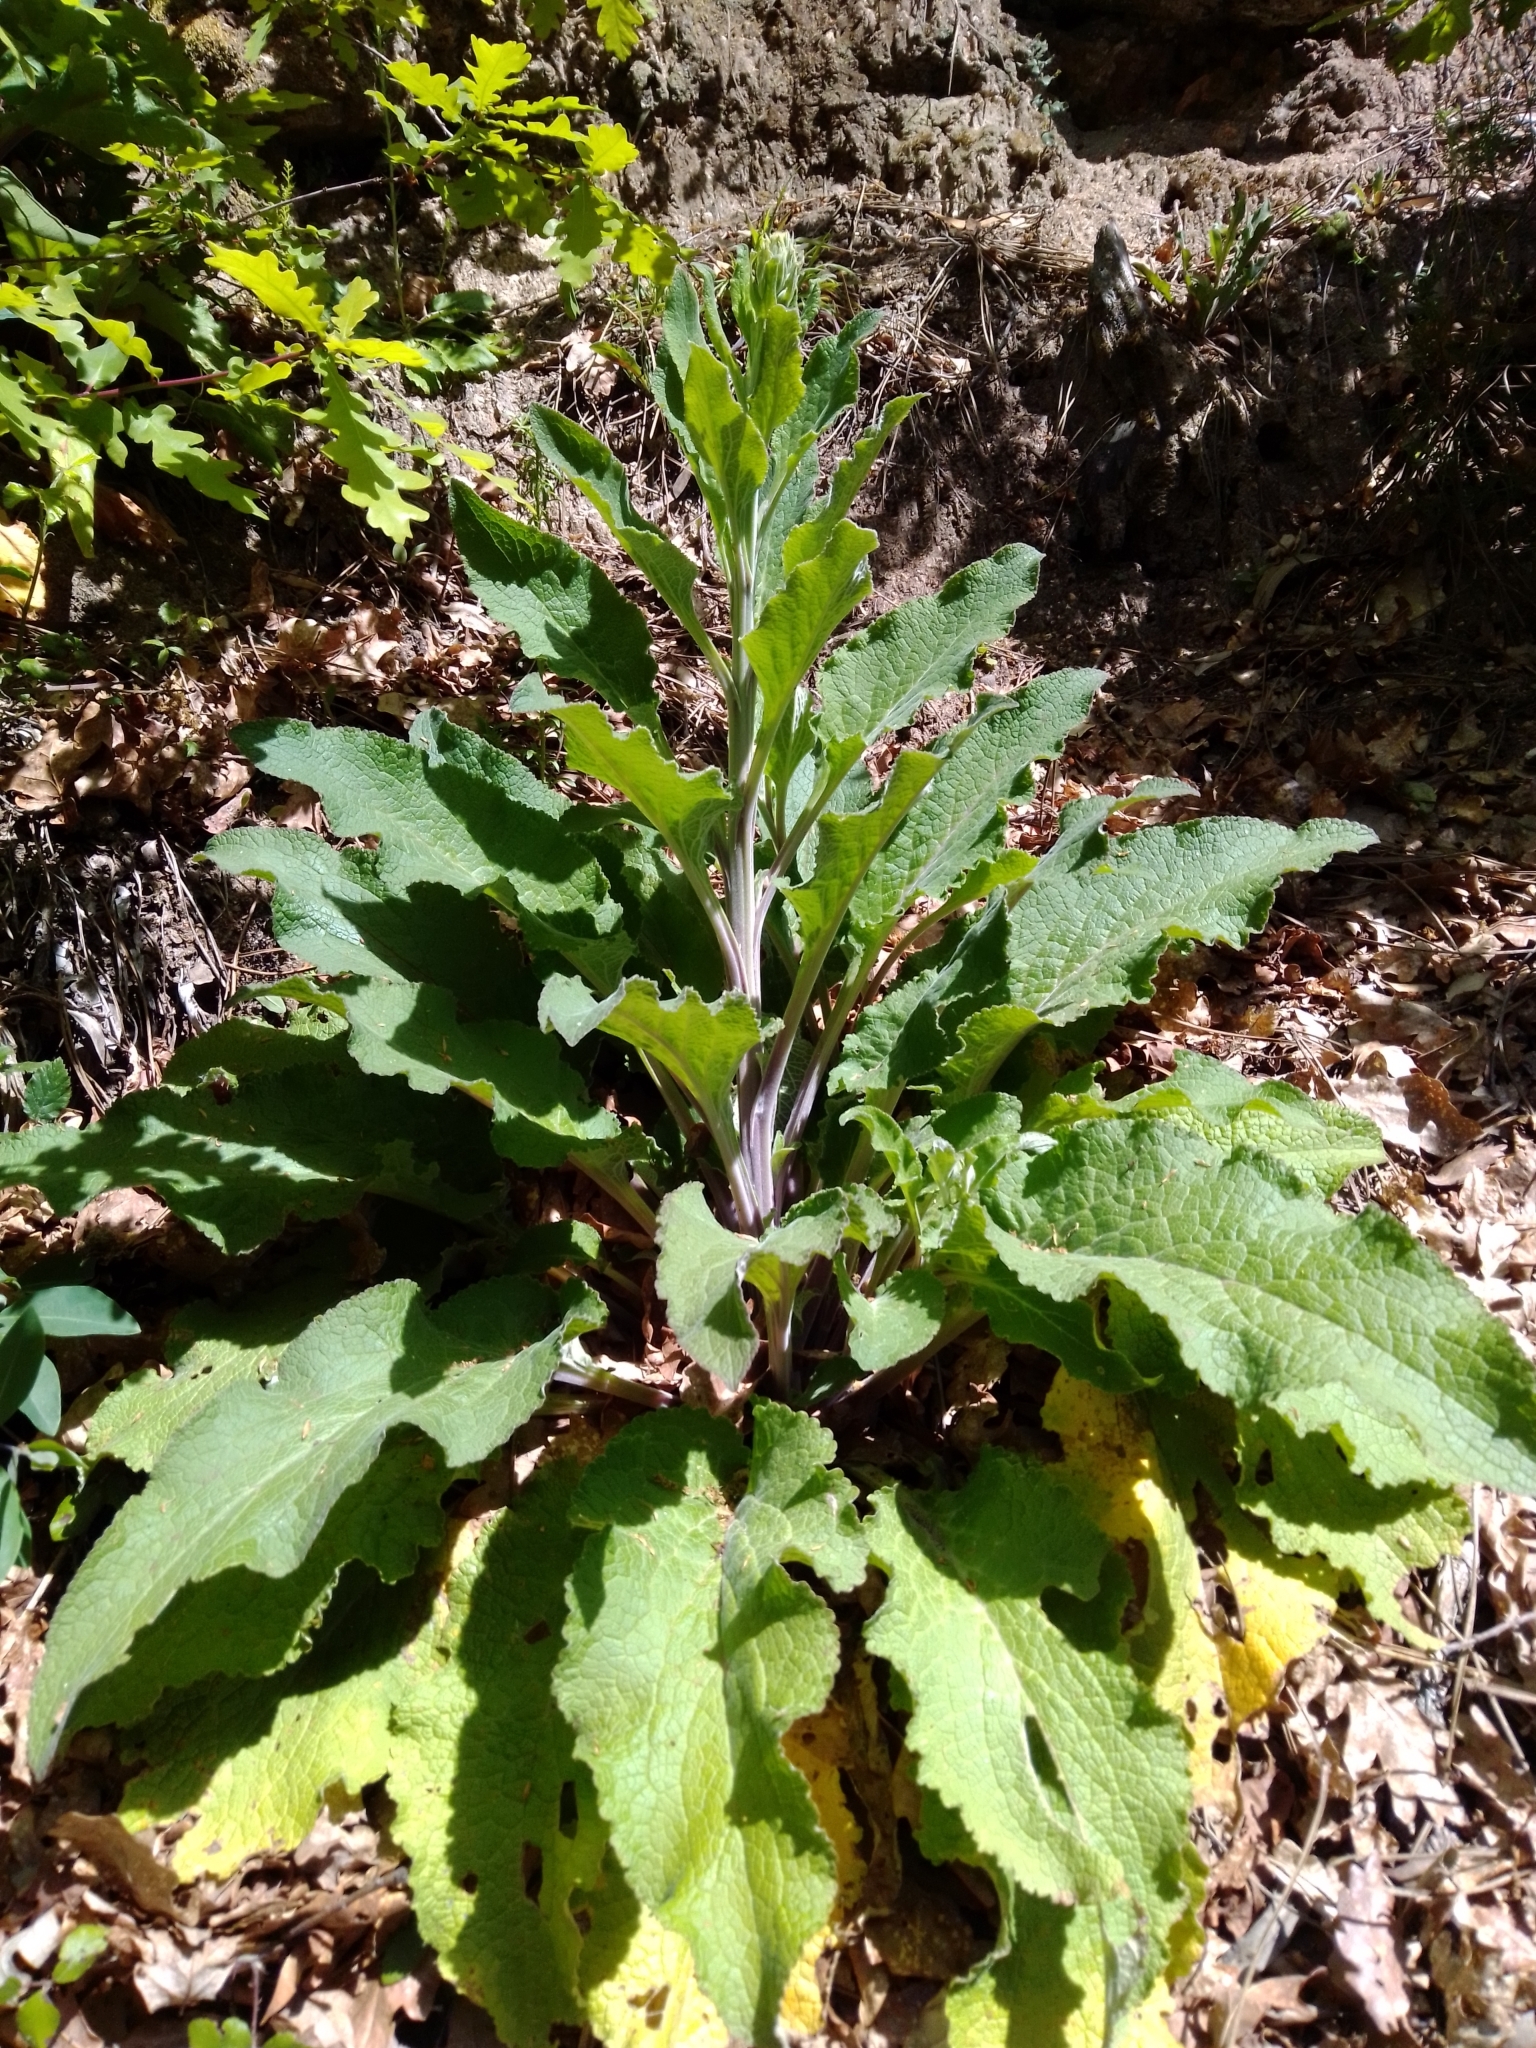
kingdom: Plantae
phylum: Tracheophyta
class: Magnoliopsida
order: Lamiales
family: Plantaginaceae
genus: Digitalis
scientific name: Digitalis purpurea
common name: Foxglove
